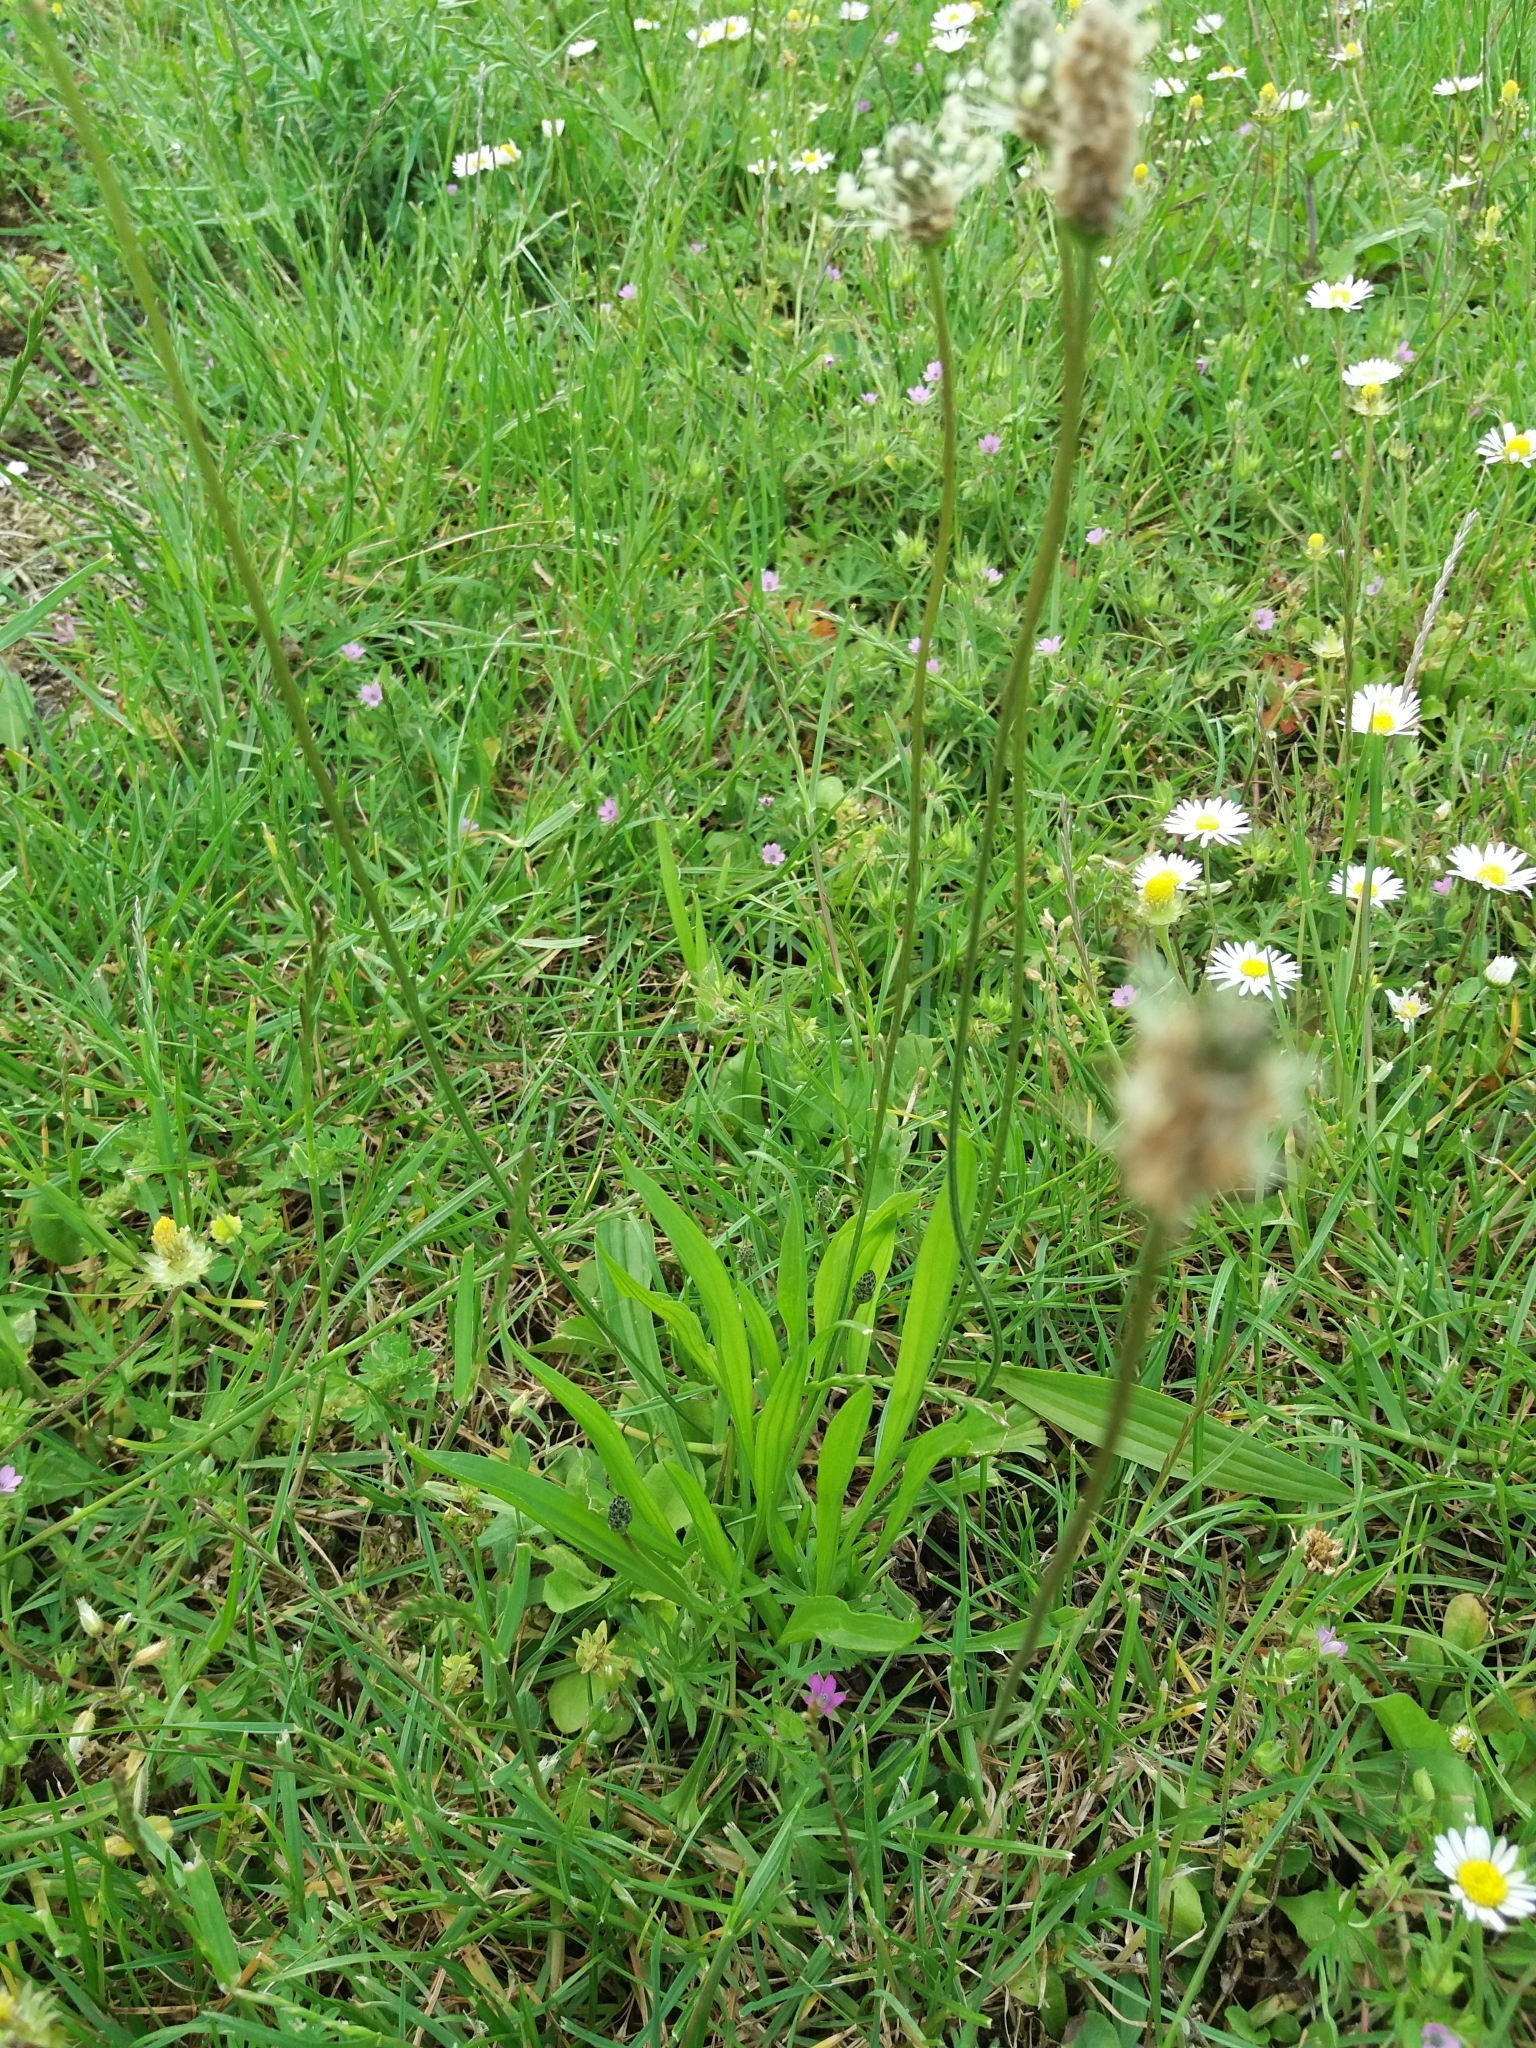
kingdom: Plantae
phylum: Tracheophyta
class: Magnoliopsida
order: Lamiales
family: Plantaginaceae
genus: Plantago
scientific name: Plantago lanceolata
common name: Ribwort plantain
